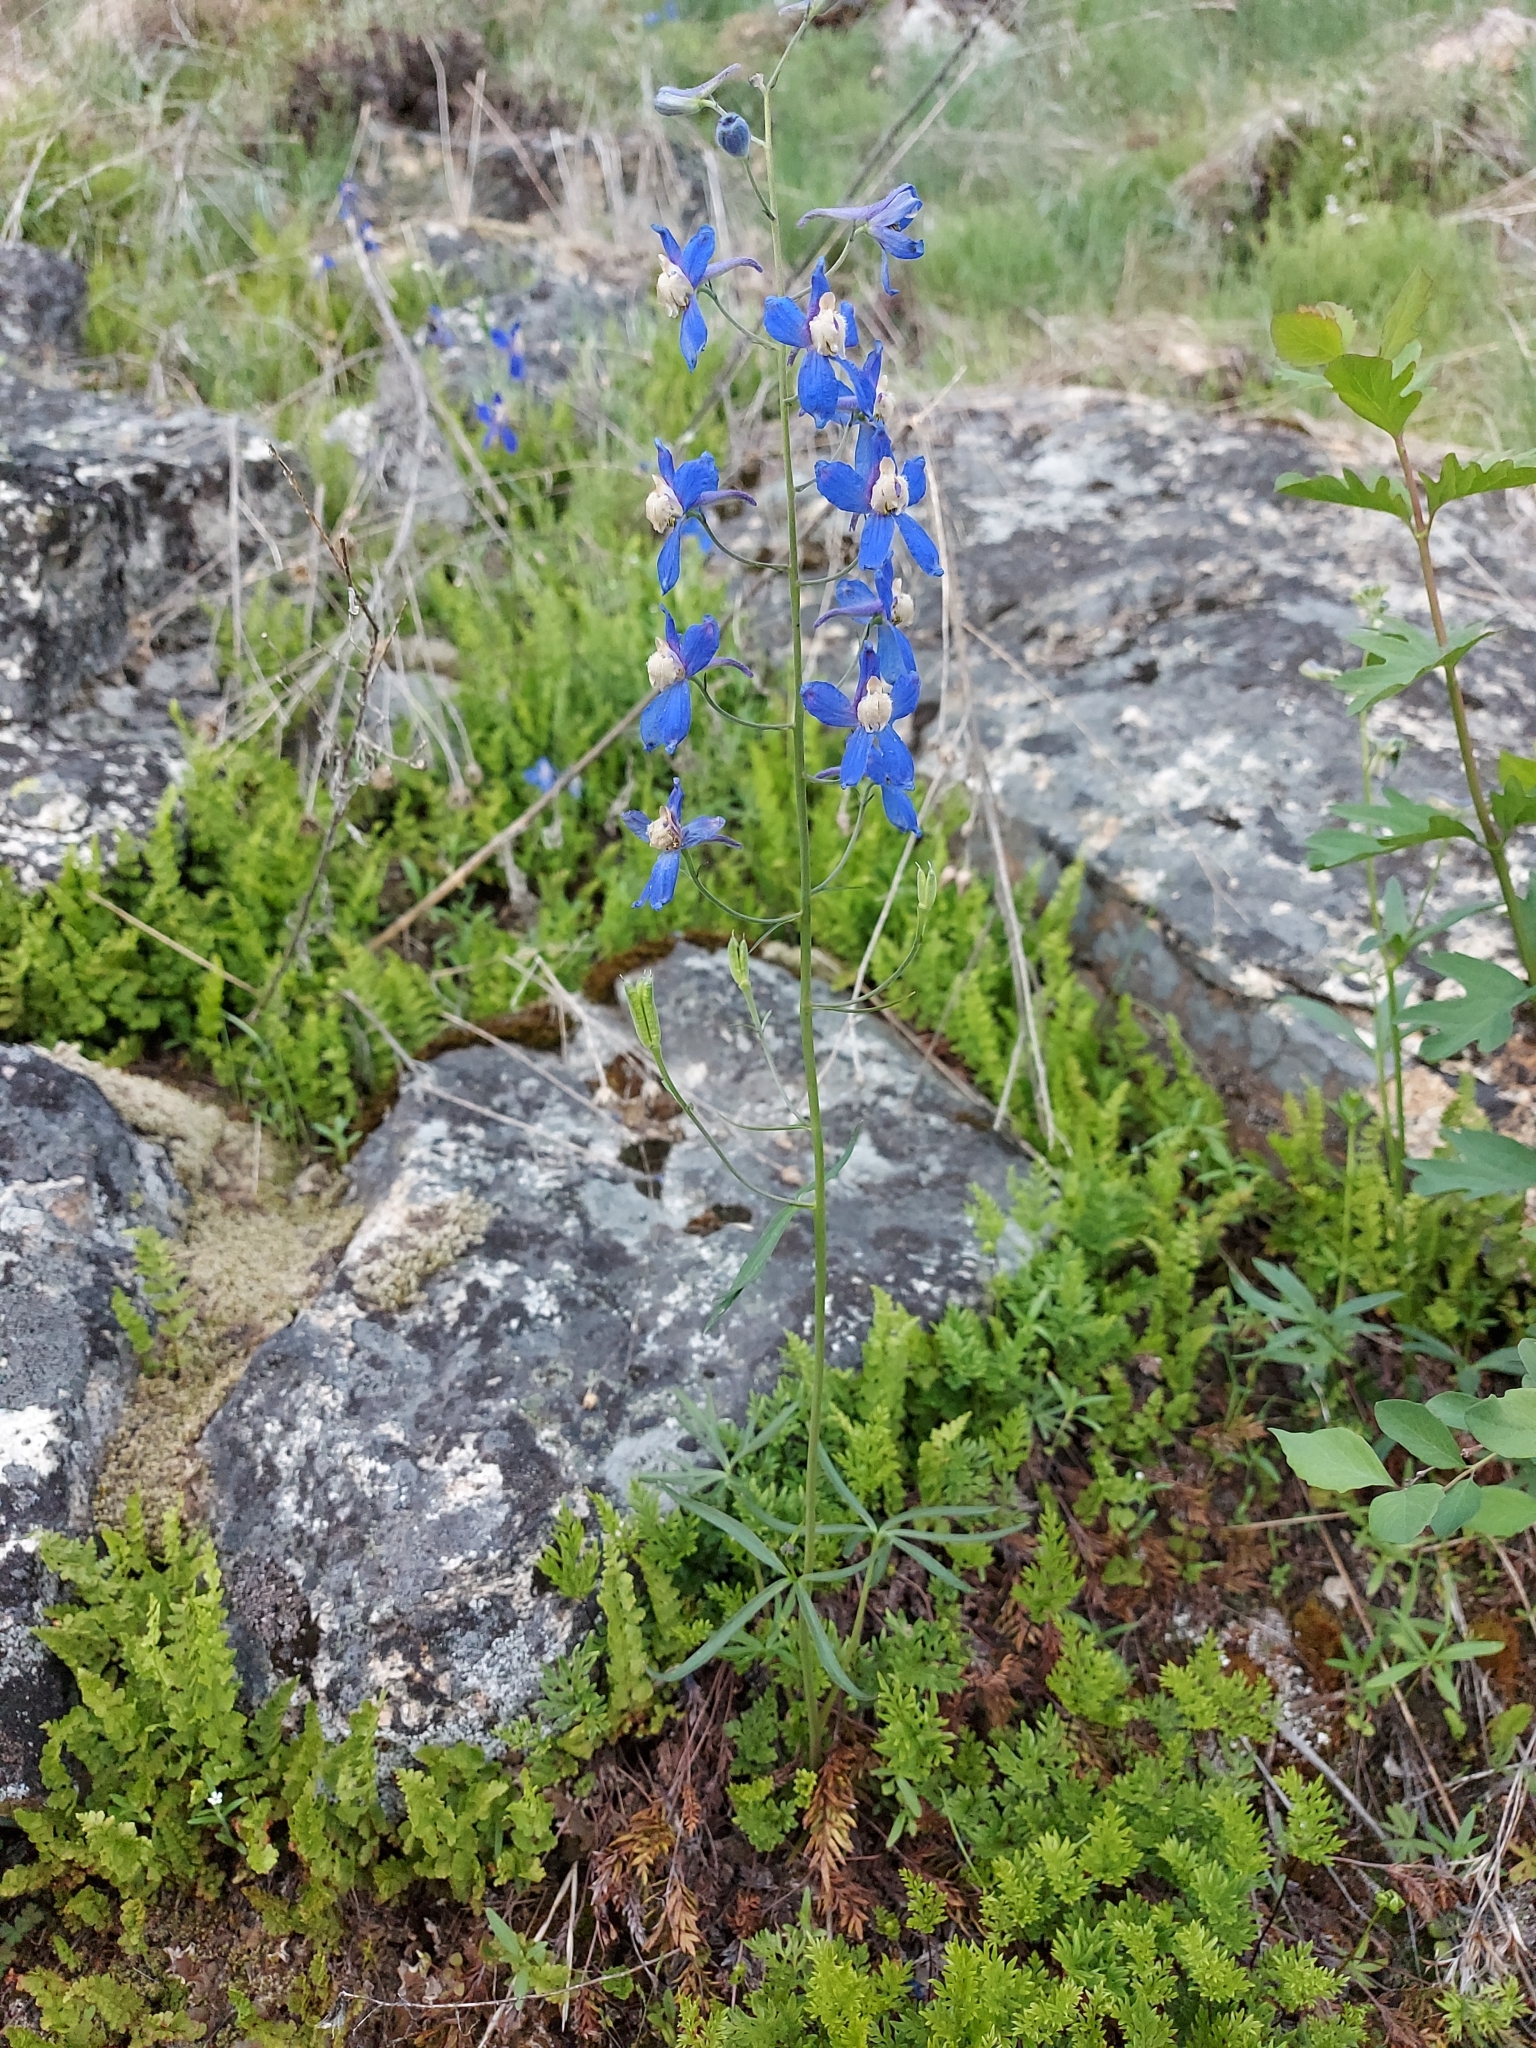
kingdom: Plantae
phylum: Tracheophyta
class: Magnoliopsida
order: Ranunculales
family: Ranunculaceae
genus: Delphinium
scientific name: Delphinium sutherlandii
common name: Sutherland's larkspur
